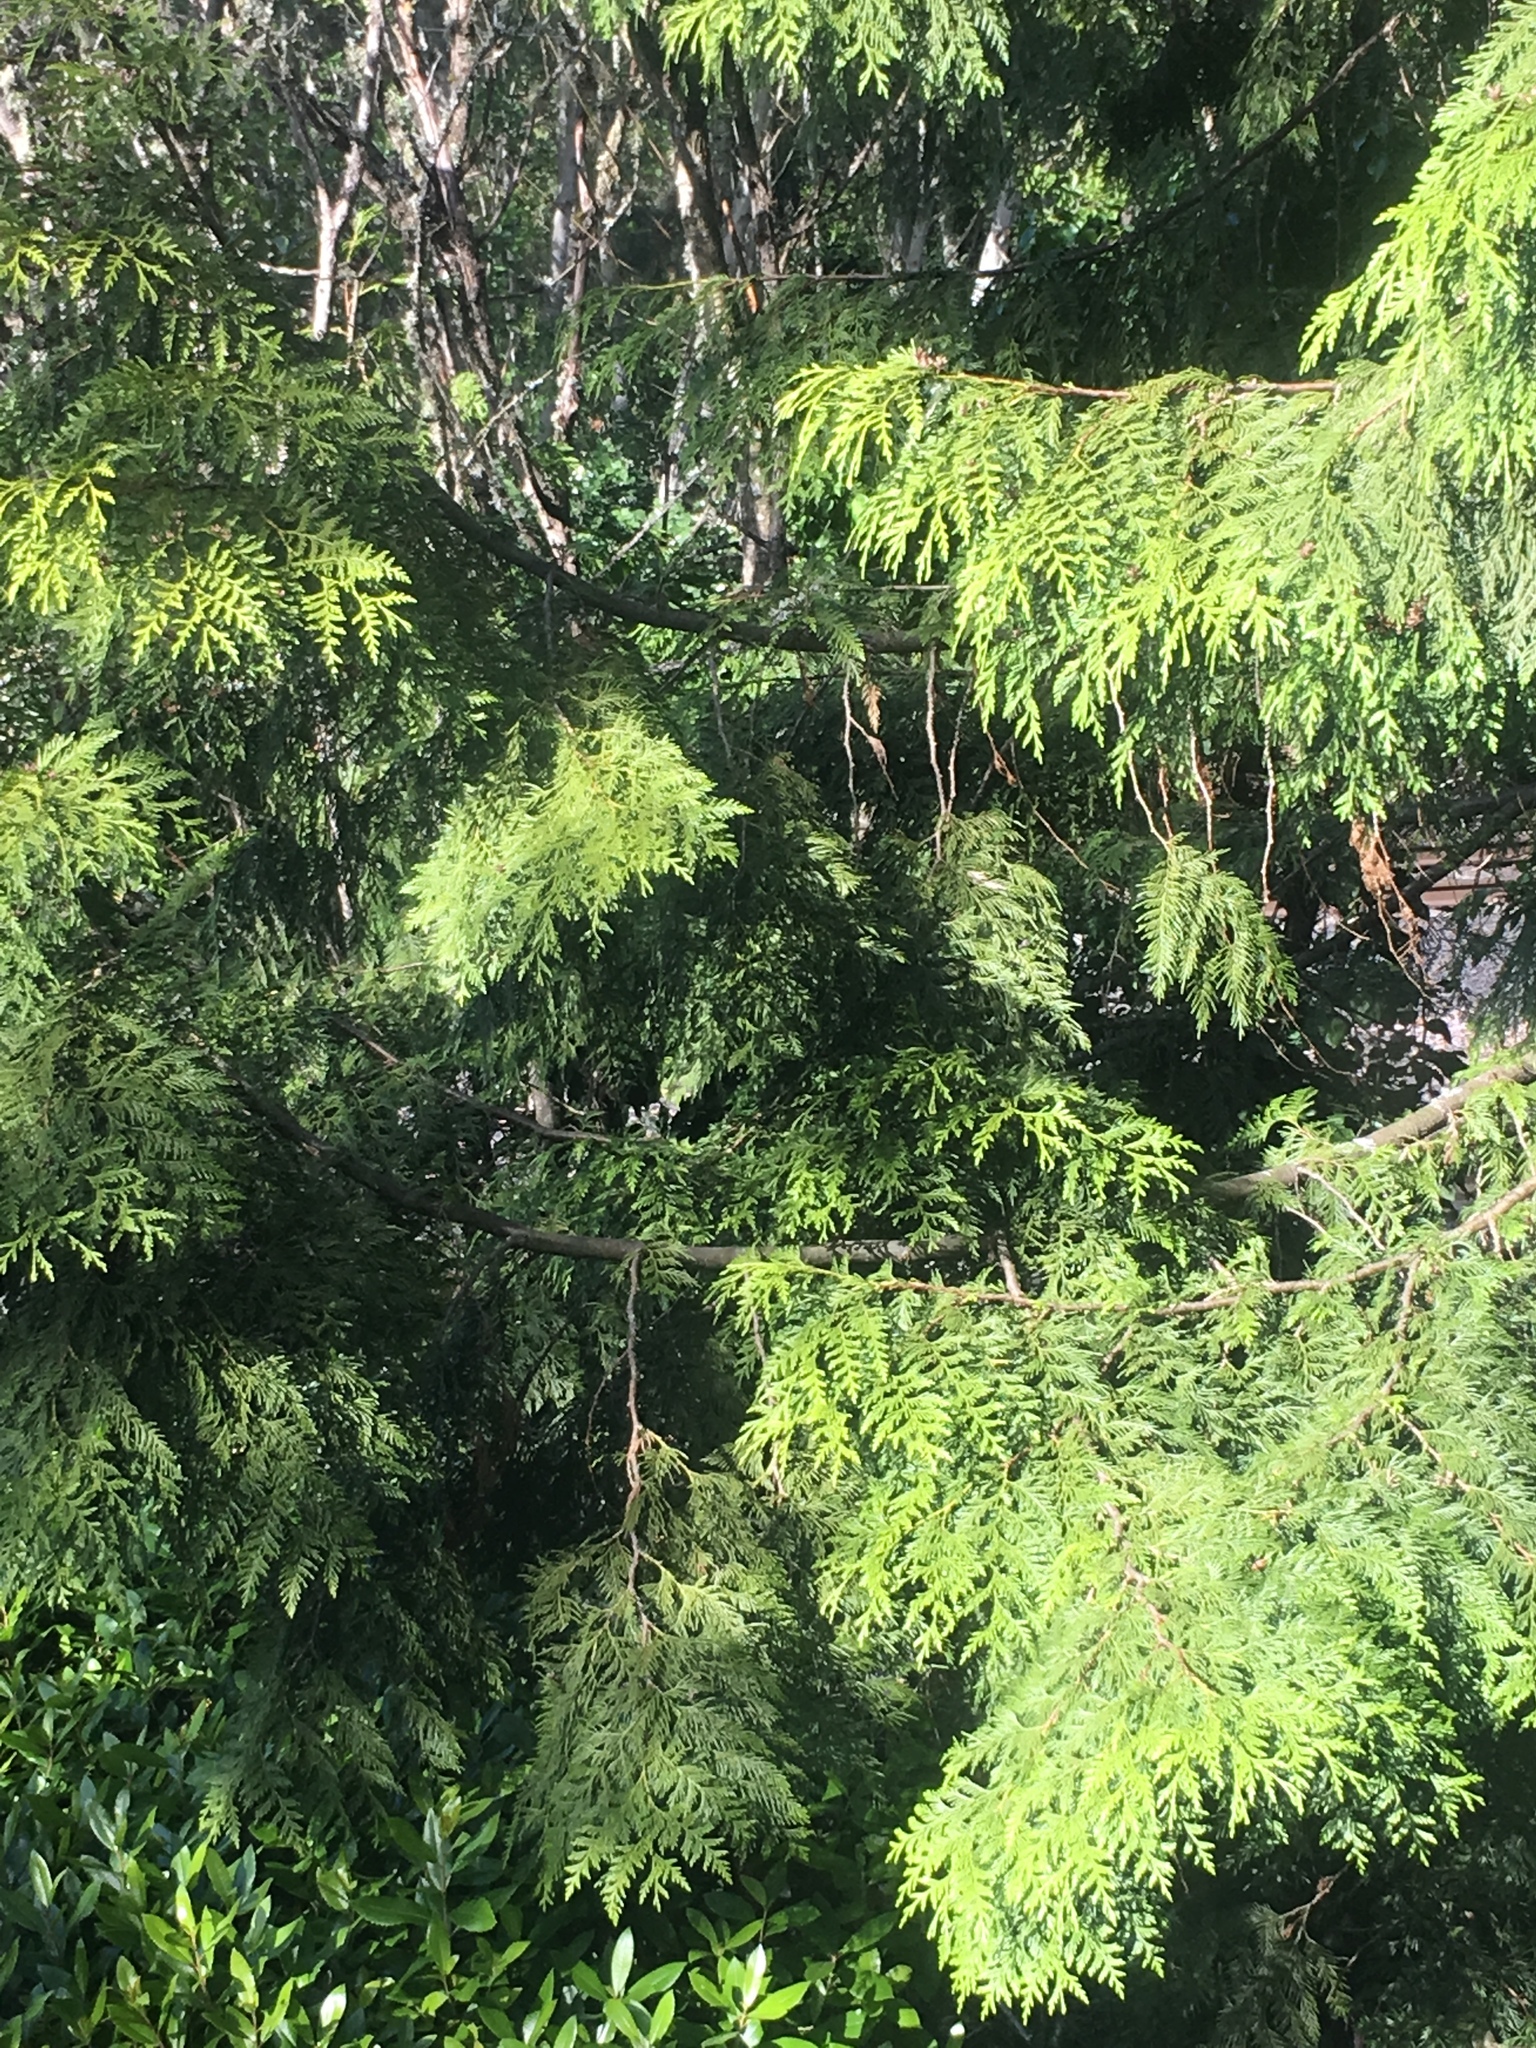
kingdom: Plantae
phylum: Tracheophyta
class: Pinopsida
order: Pinales
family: Cupressaceae
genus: Thuja
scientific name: Thuja plicata
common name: Western red-cedar
